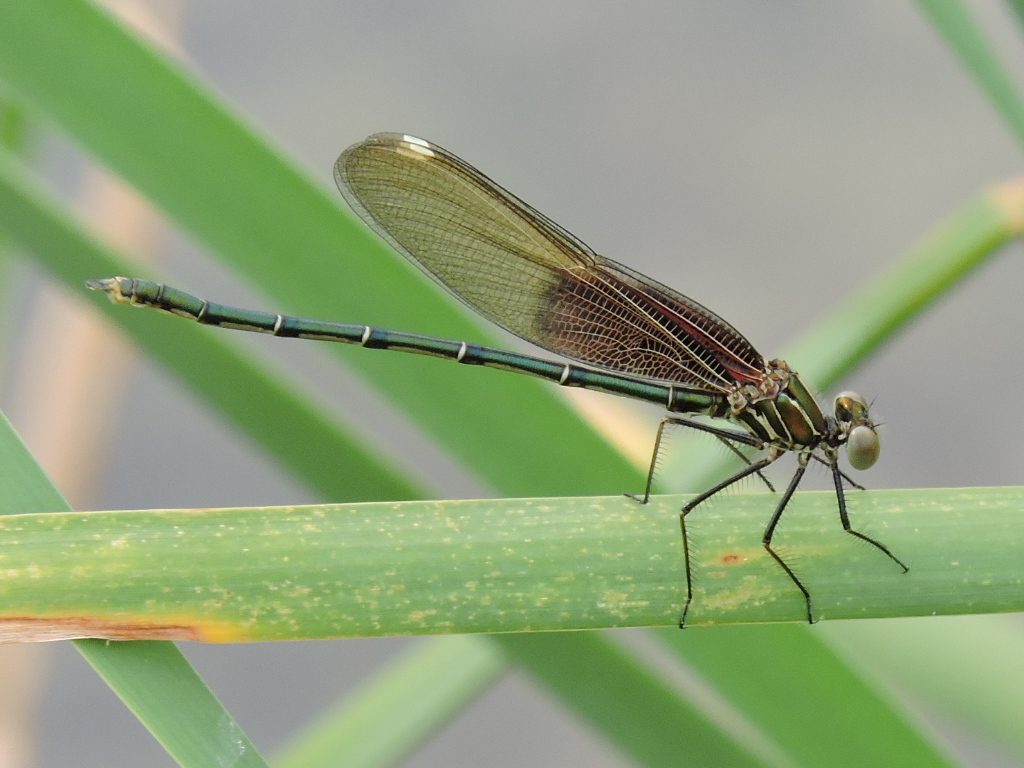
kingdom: Animalia
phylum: Arthropoda
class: Insecta
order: Odonata
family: Calopterygidae
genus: Hetaerina
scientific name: Hetaerina americana
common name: American rubyspot
